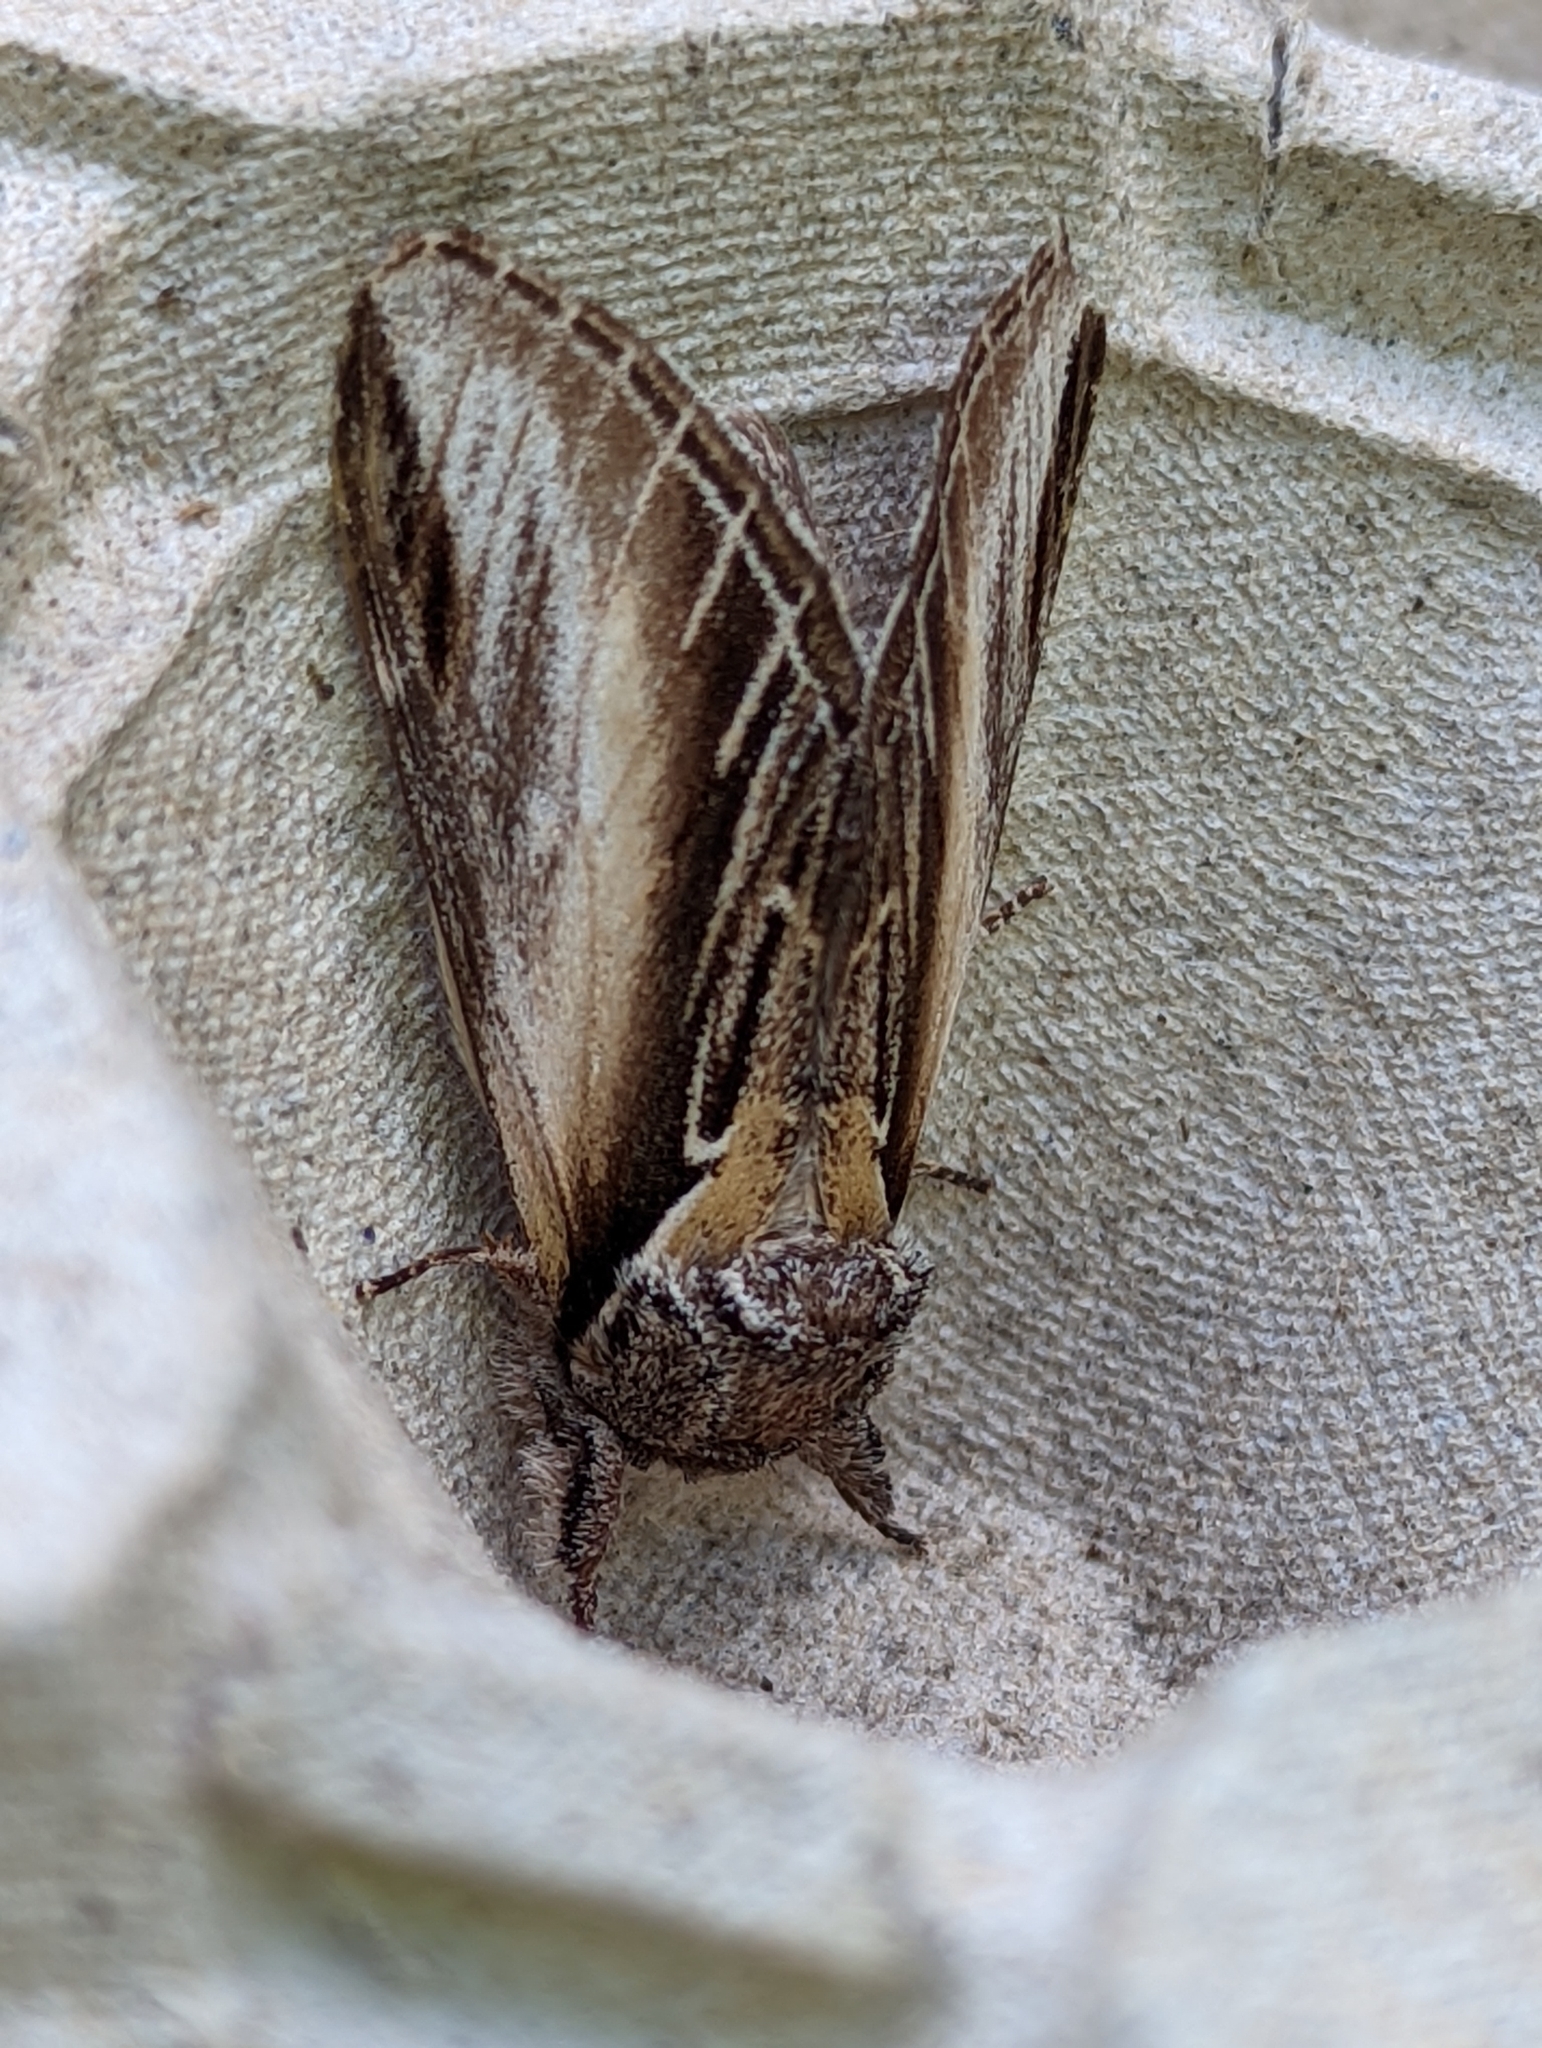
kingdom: Animalia
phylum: Arthropoda
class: Insecta
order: Lepidoptera
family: Notodontidae
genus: Pheosia
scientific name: Pheosia tremula
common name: Swallow prominent
